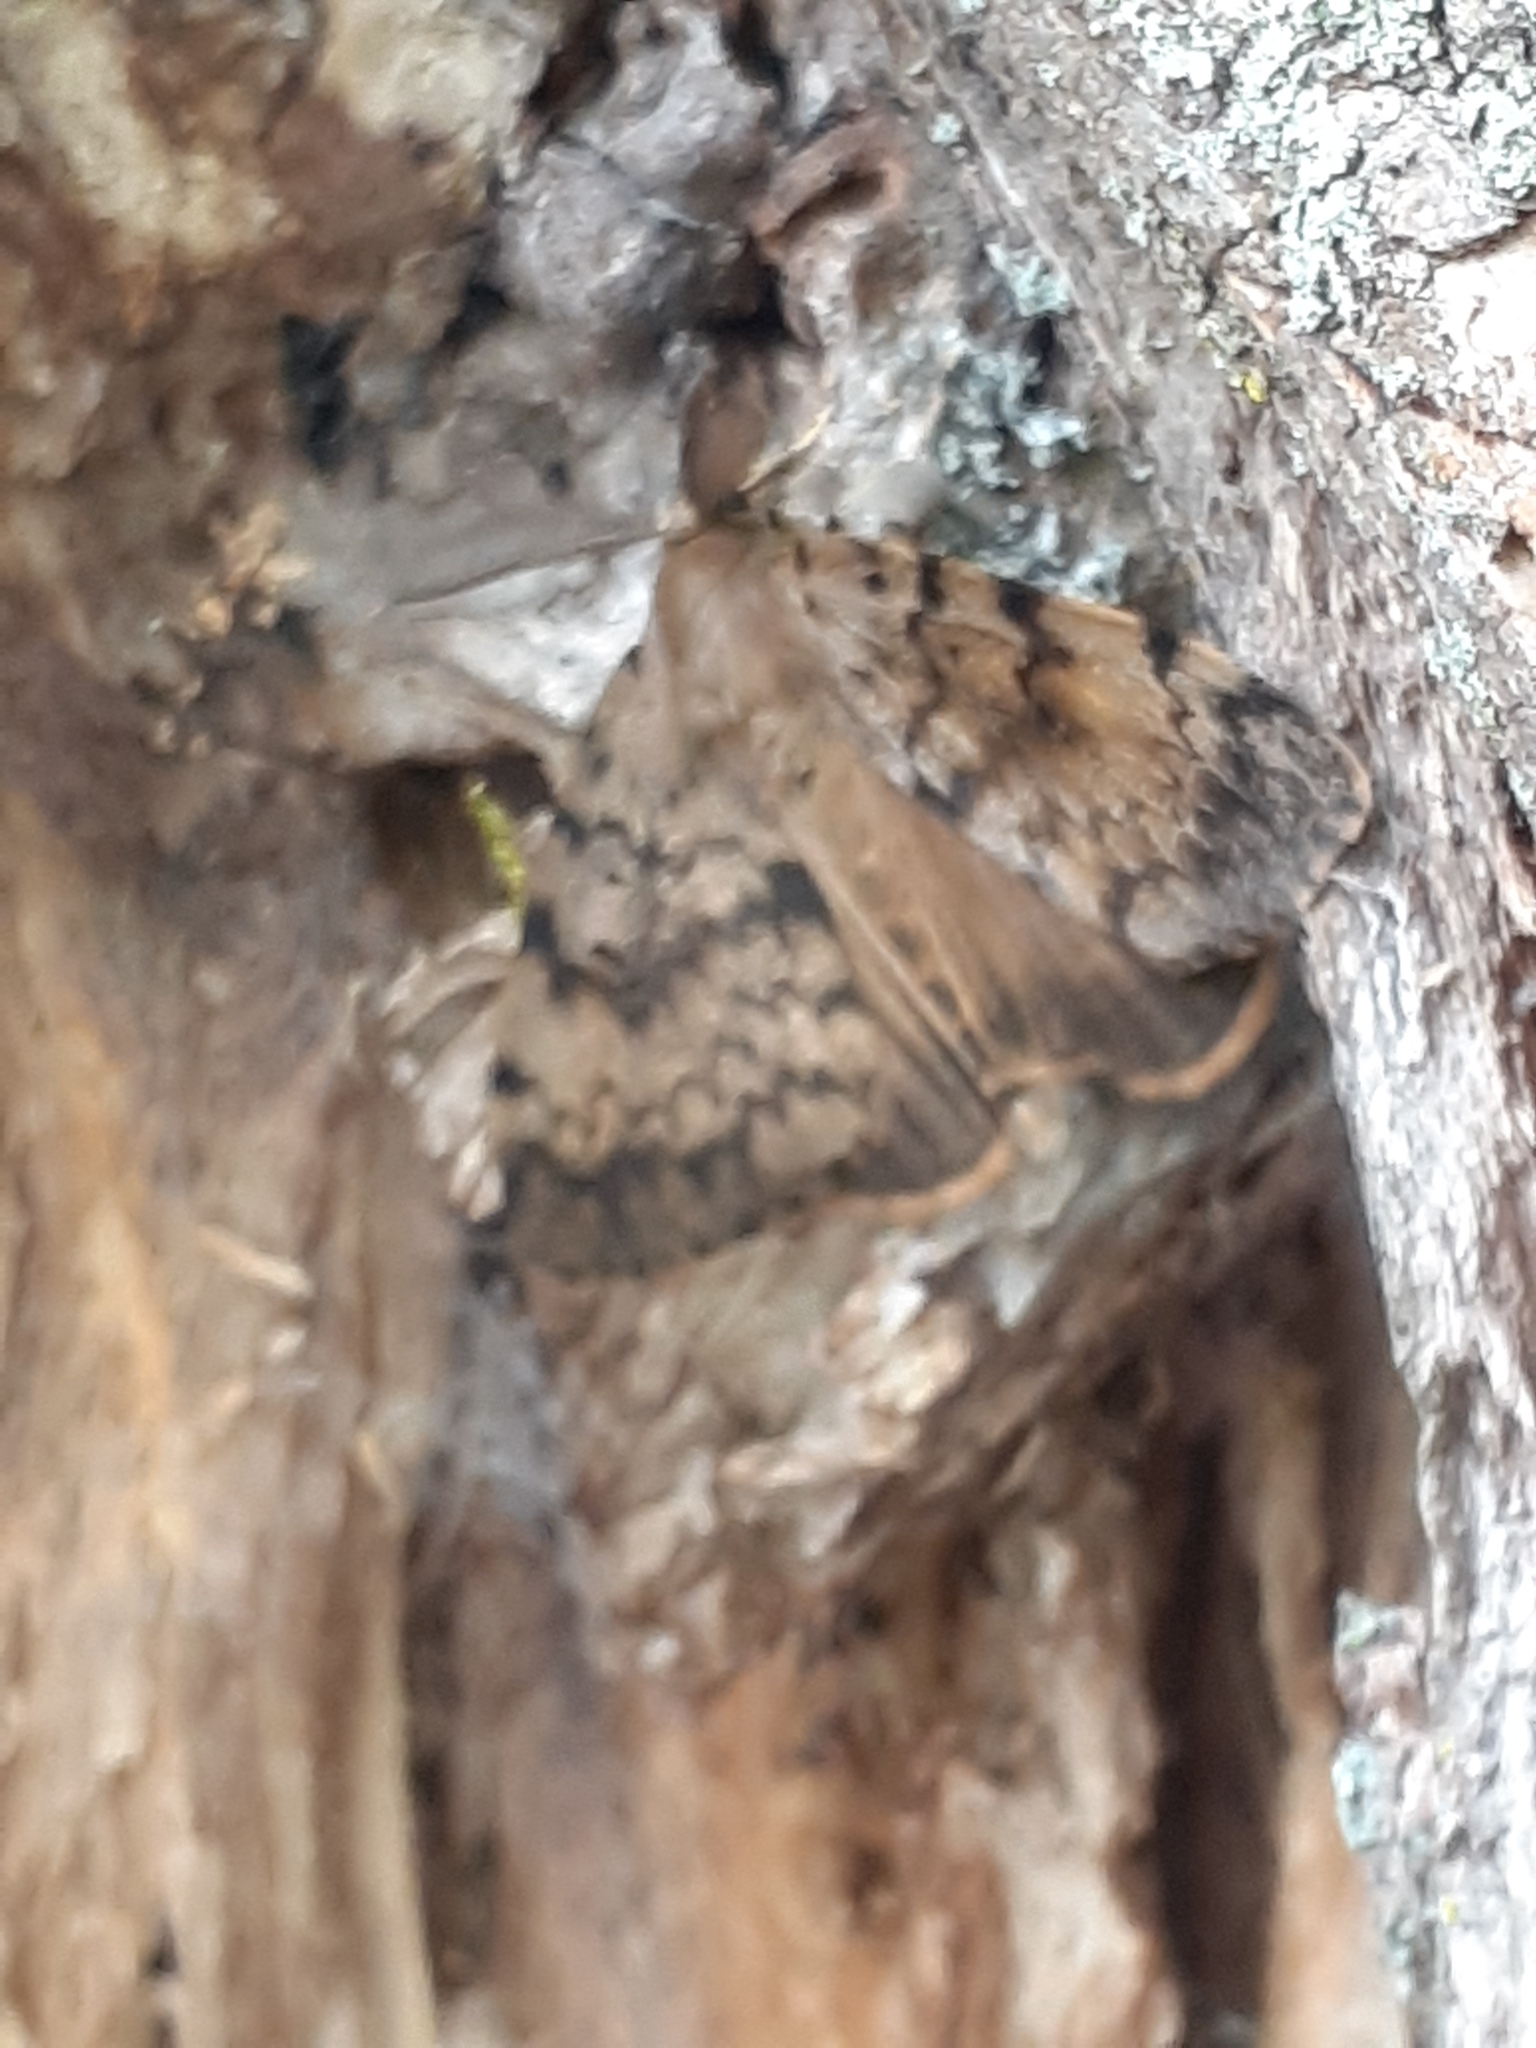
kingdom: Animalia
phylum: Arthropoda
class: Insecta
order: Lepidoptera
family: Erebidae
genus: Lymantria
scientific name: Lymantria dispar
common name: Gypsy moth
